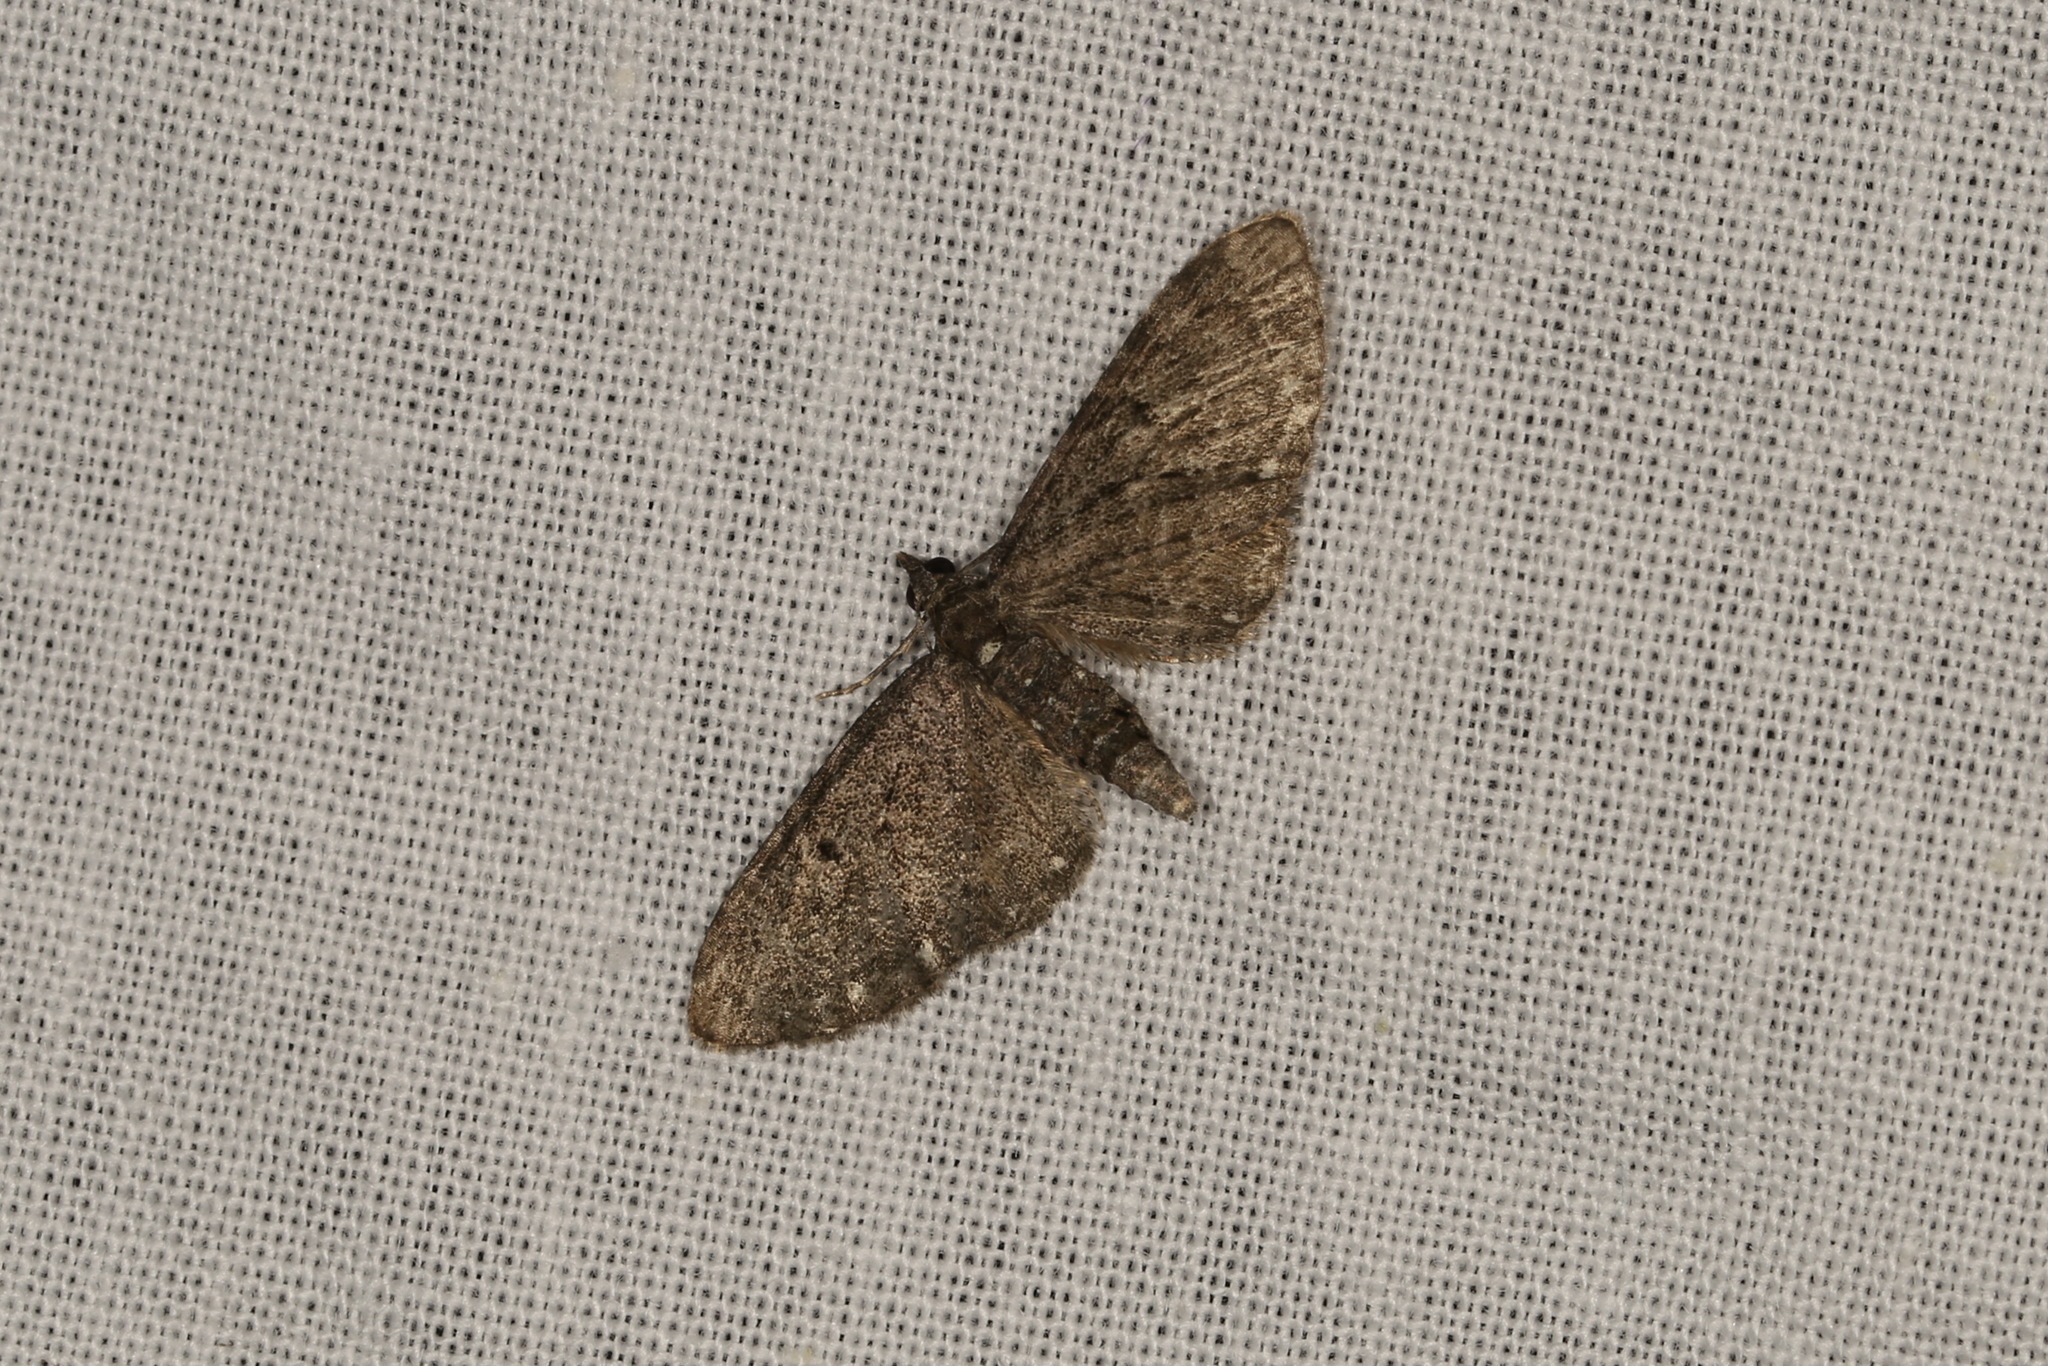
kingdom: Animalia
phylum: Arthropoda
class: Insecta
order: Lepidoptera
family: Geometridae
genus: Eupithecia
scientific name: Eupithecia tripunctaria
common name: White-spotted pug
